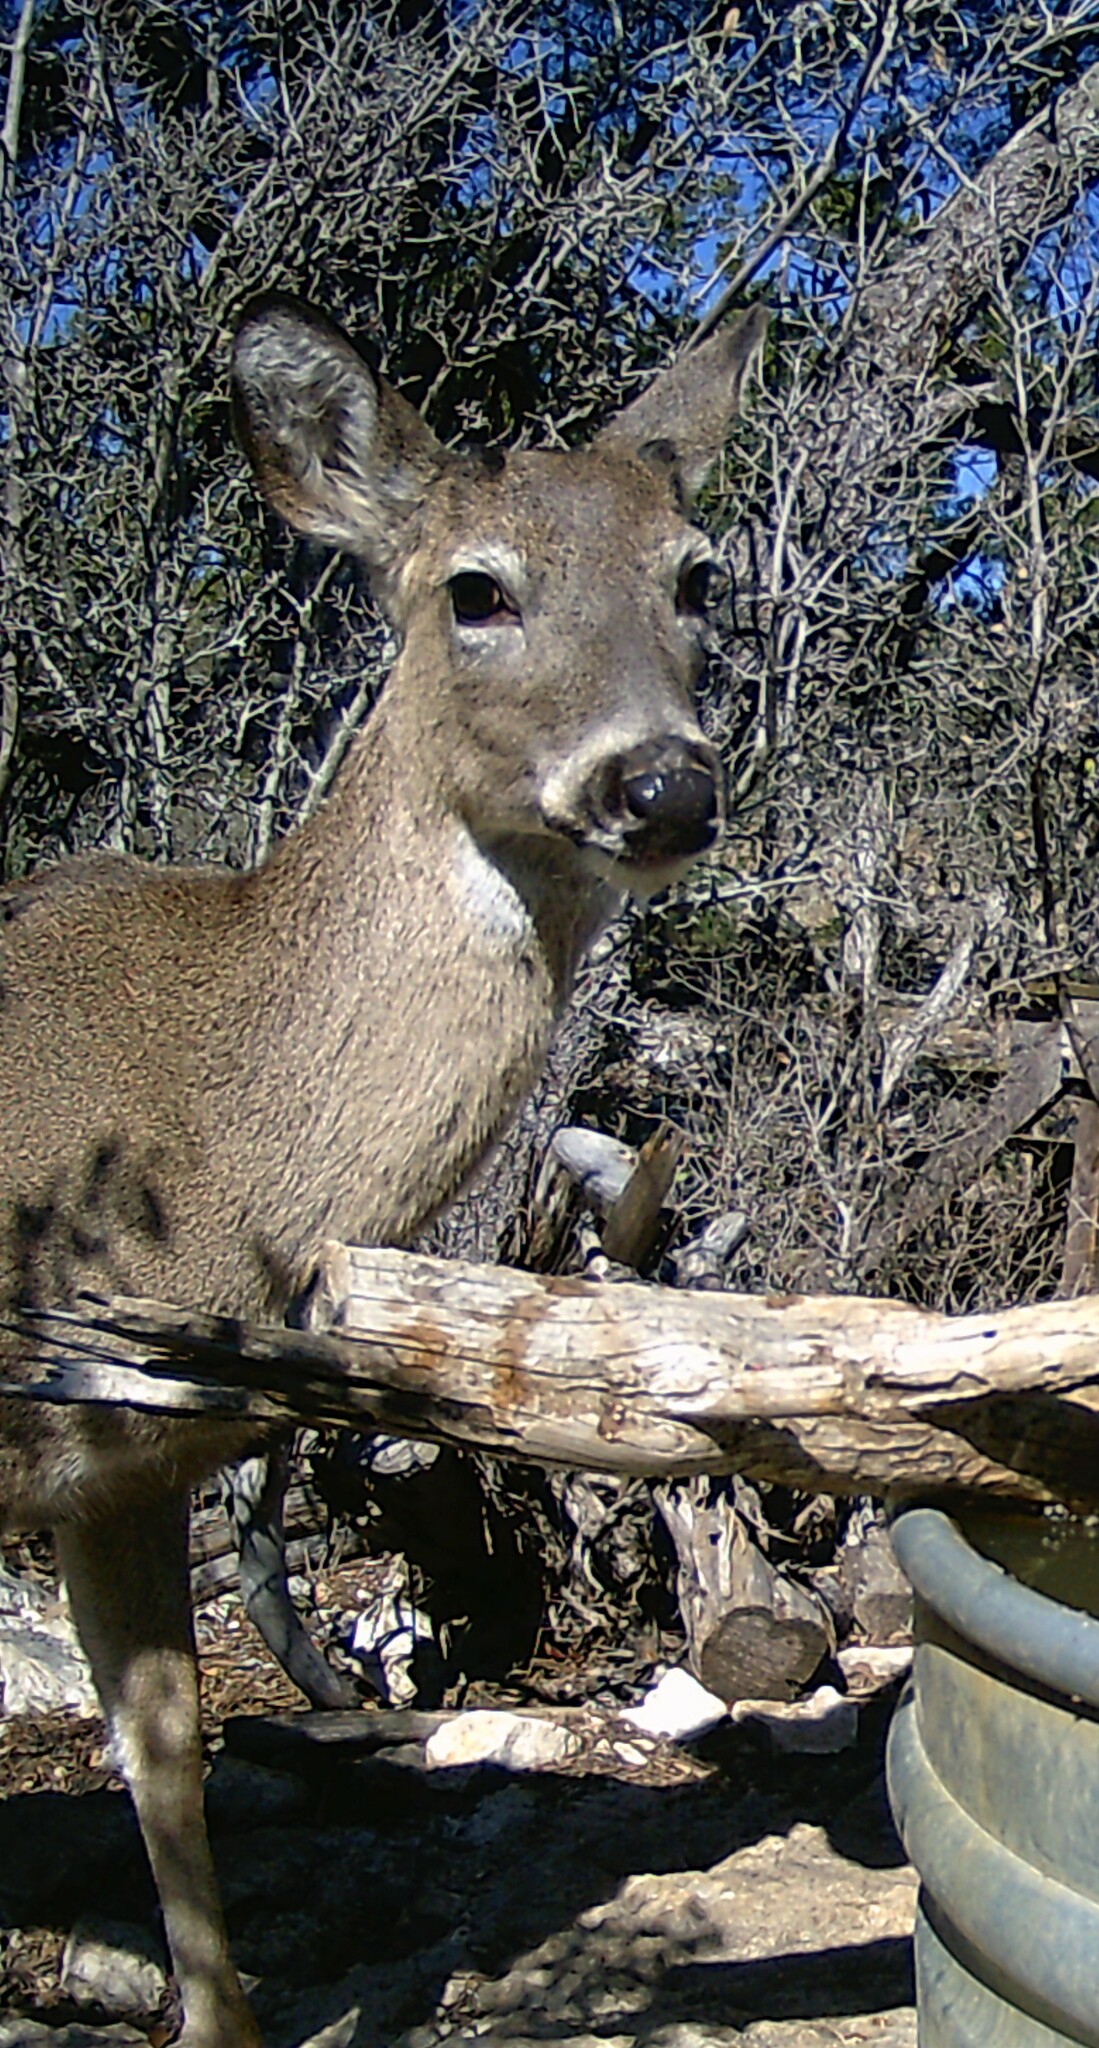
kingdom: Animalia
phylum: Chordata
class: Mammalia
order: Artiodactyla
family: Cervidae
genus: Odocoileus
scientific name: Odocoileus virginianus
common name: White-tailed deer
